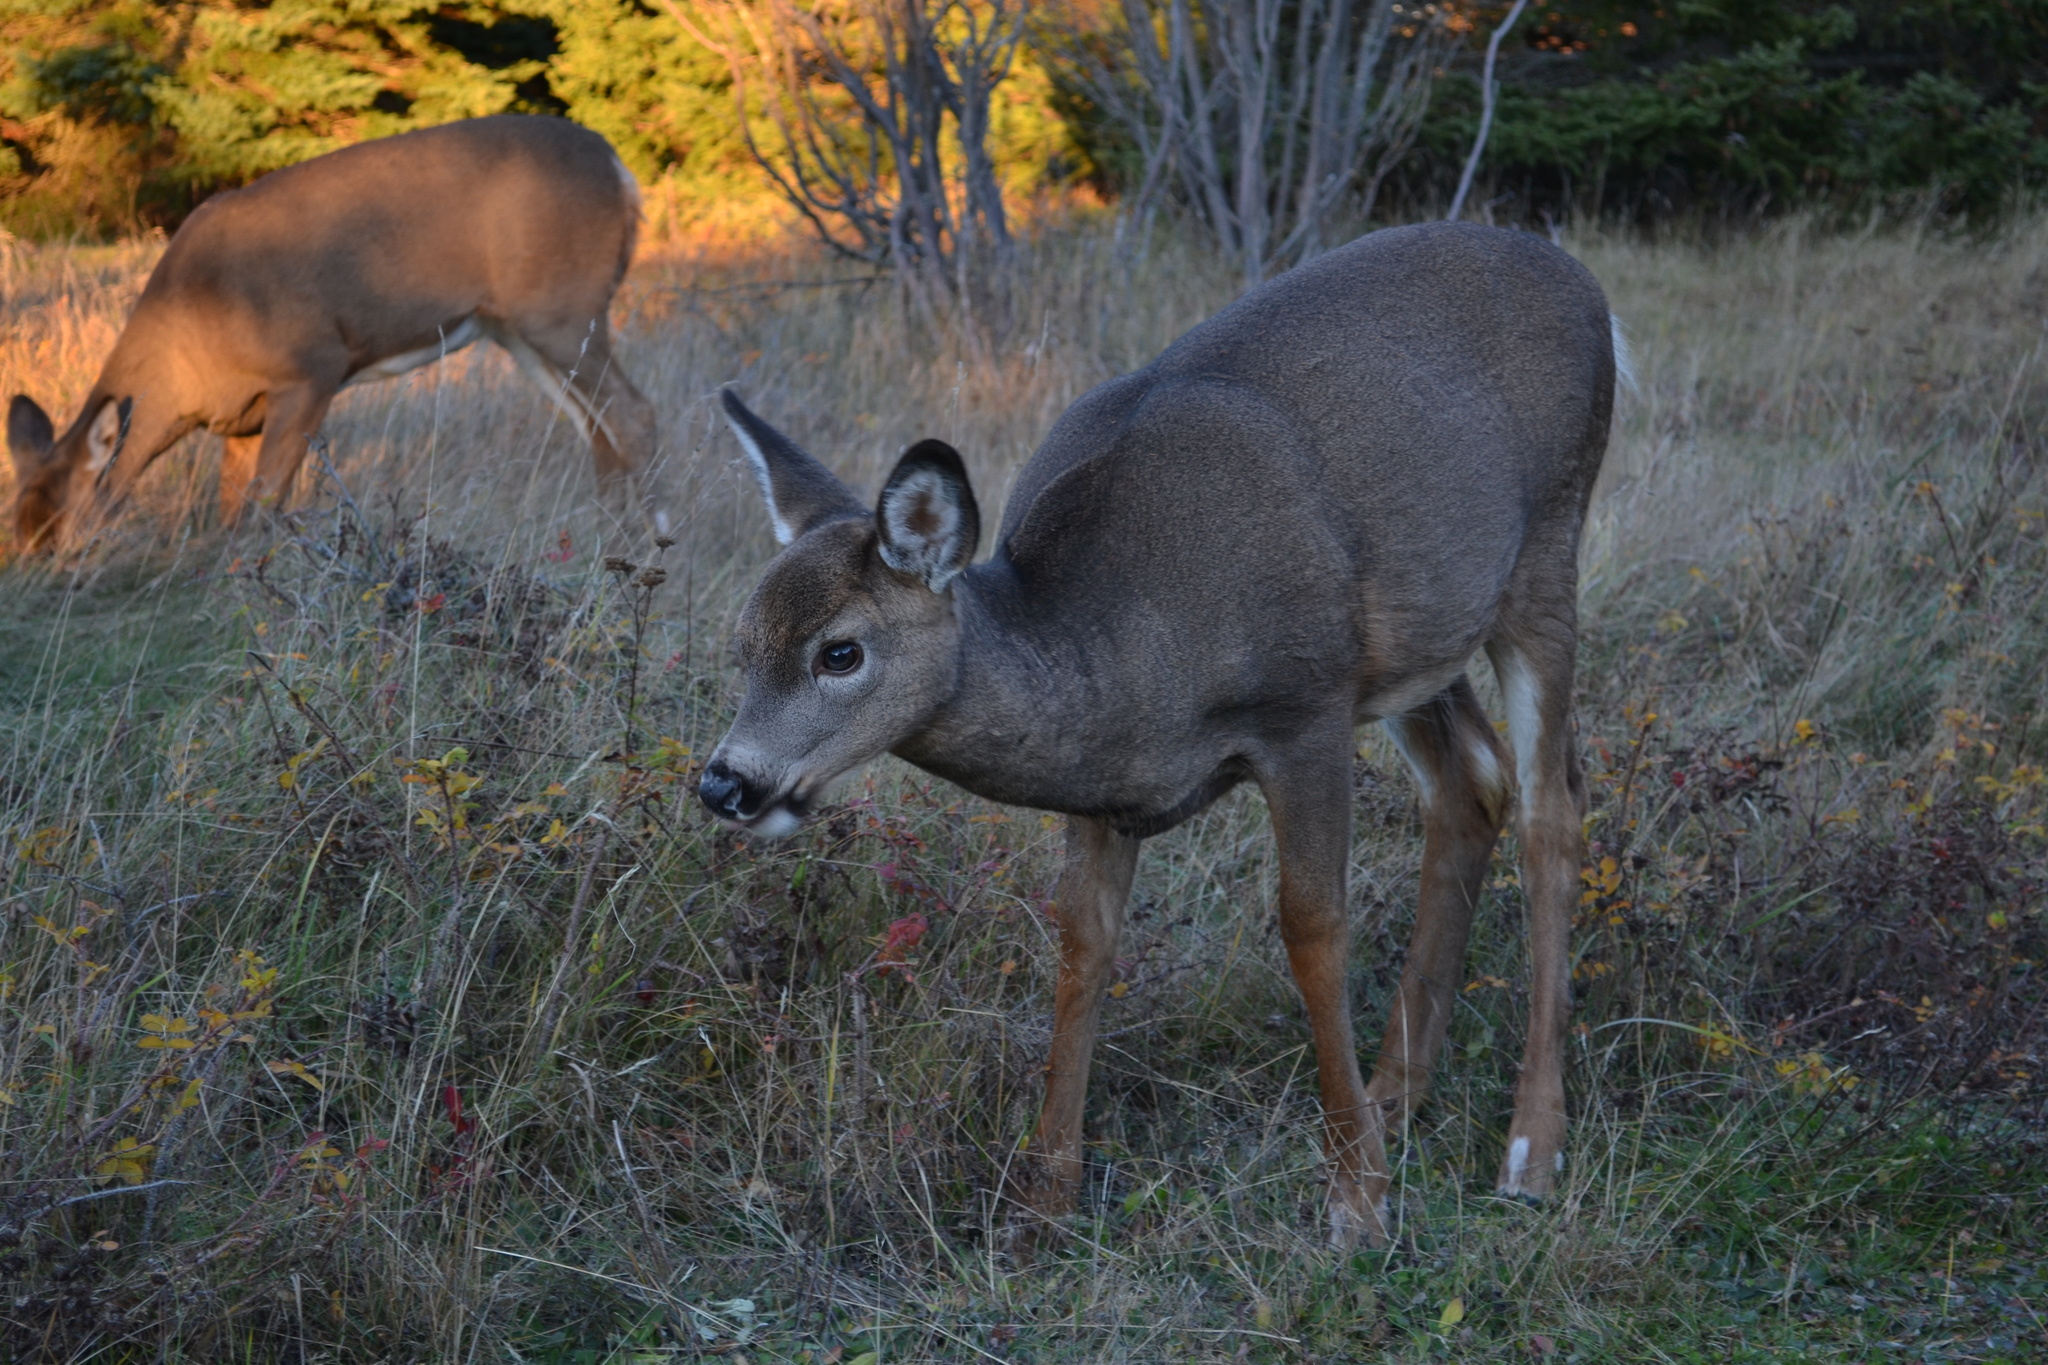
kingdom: Animalia
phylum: Chordata
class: Mammalia
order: Artiodactyla
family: Cervidae
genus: Odocoileus
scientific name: Odocoileus virginianus
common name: White-tailed deer
